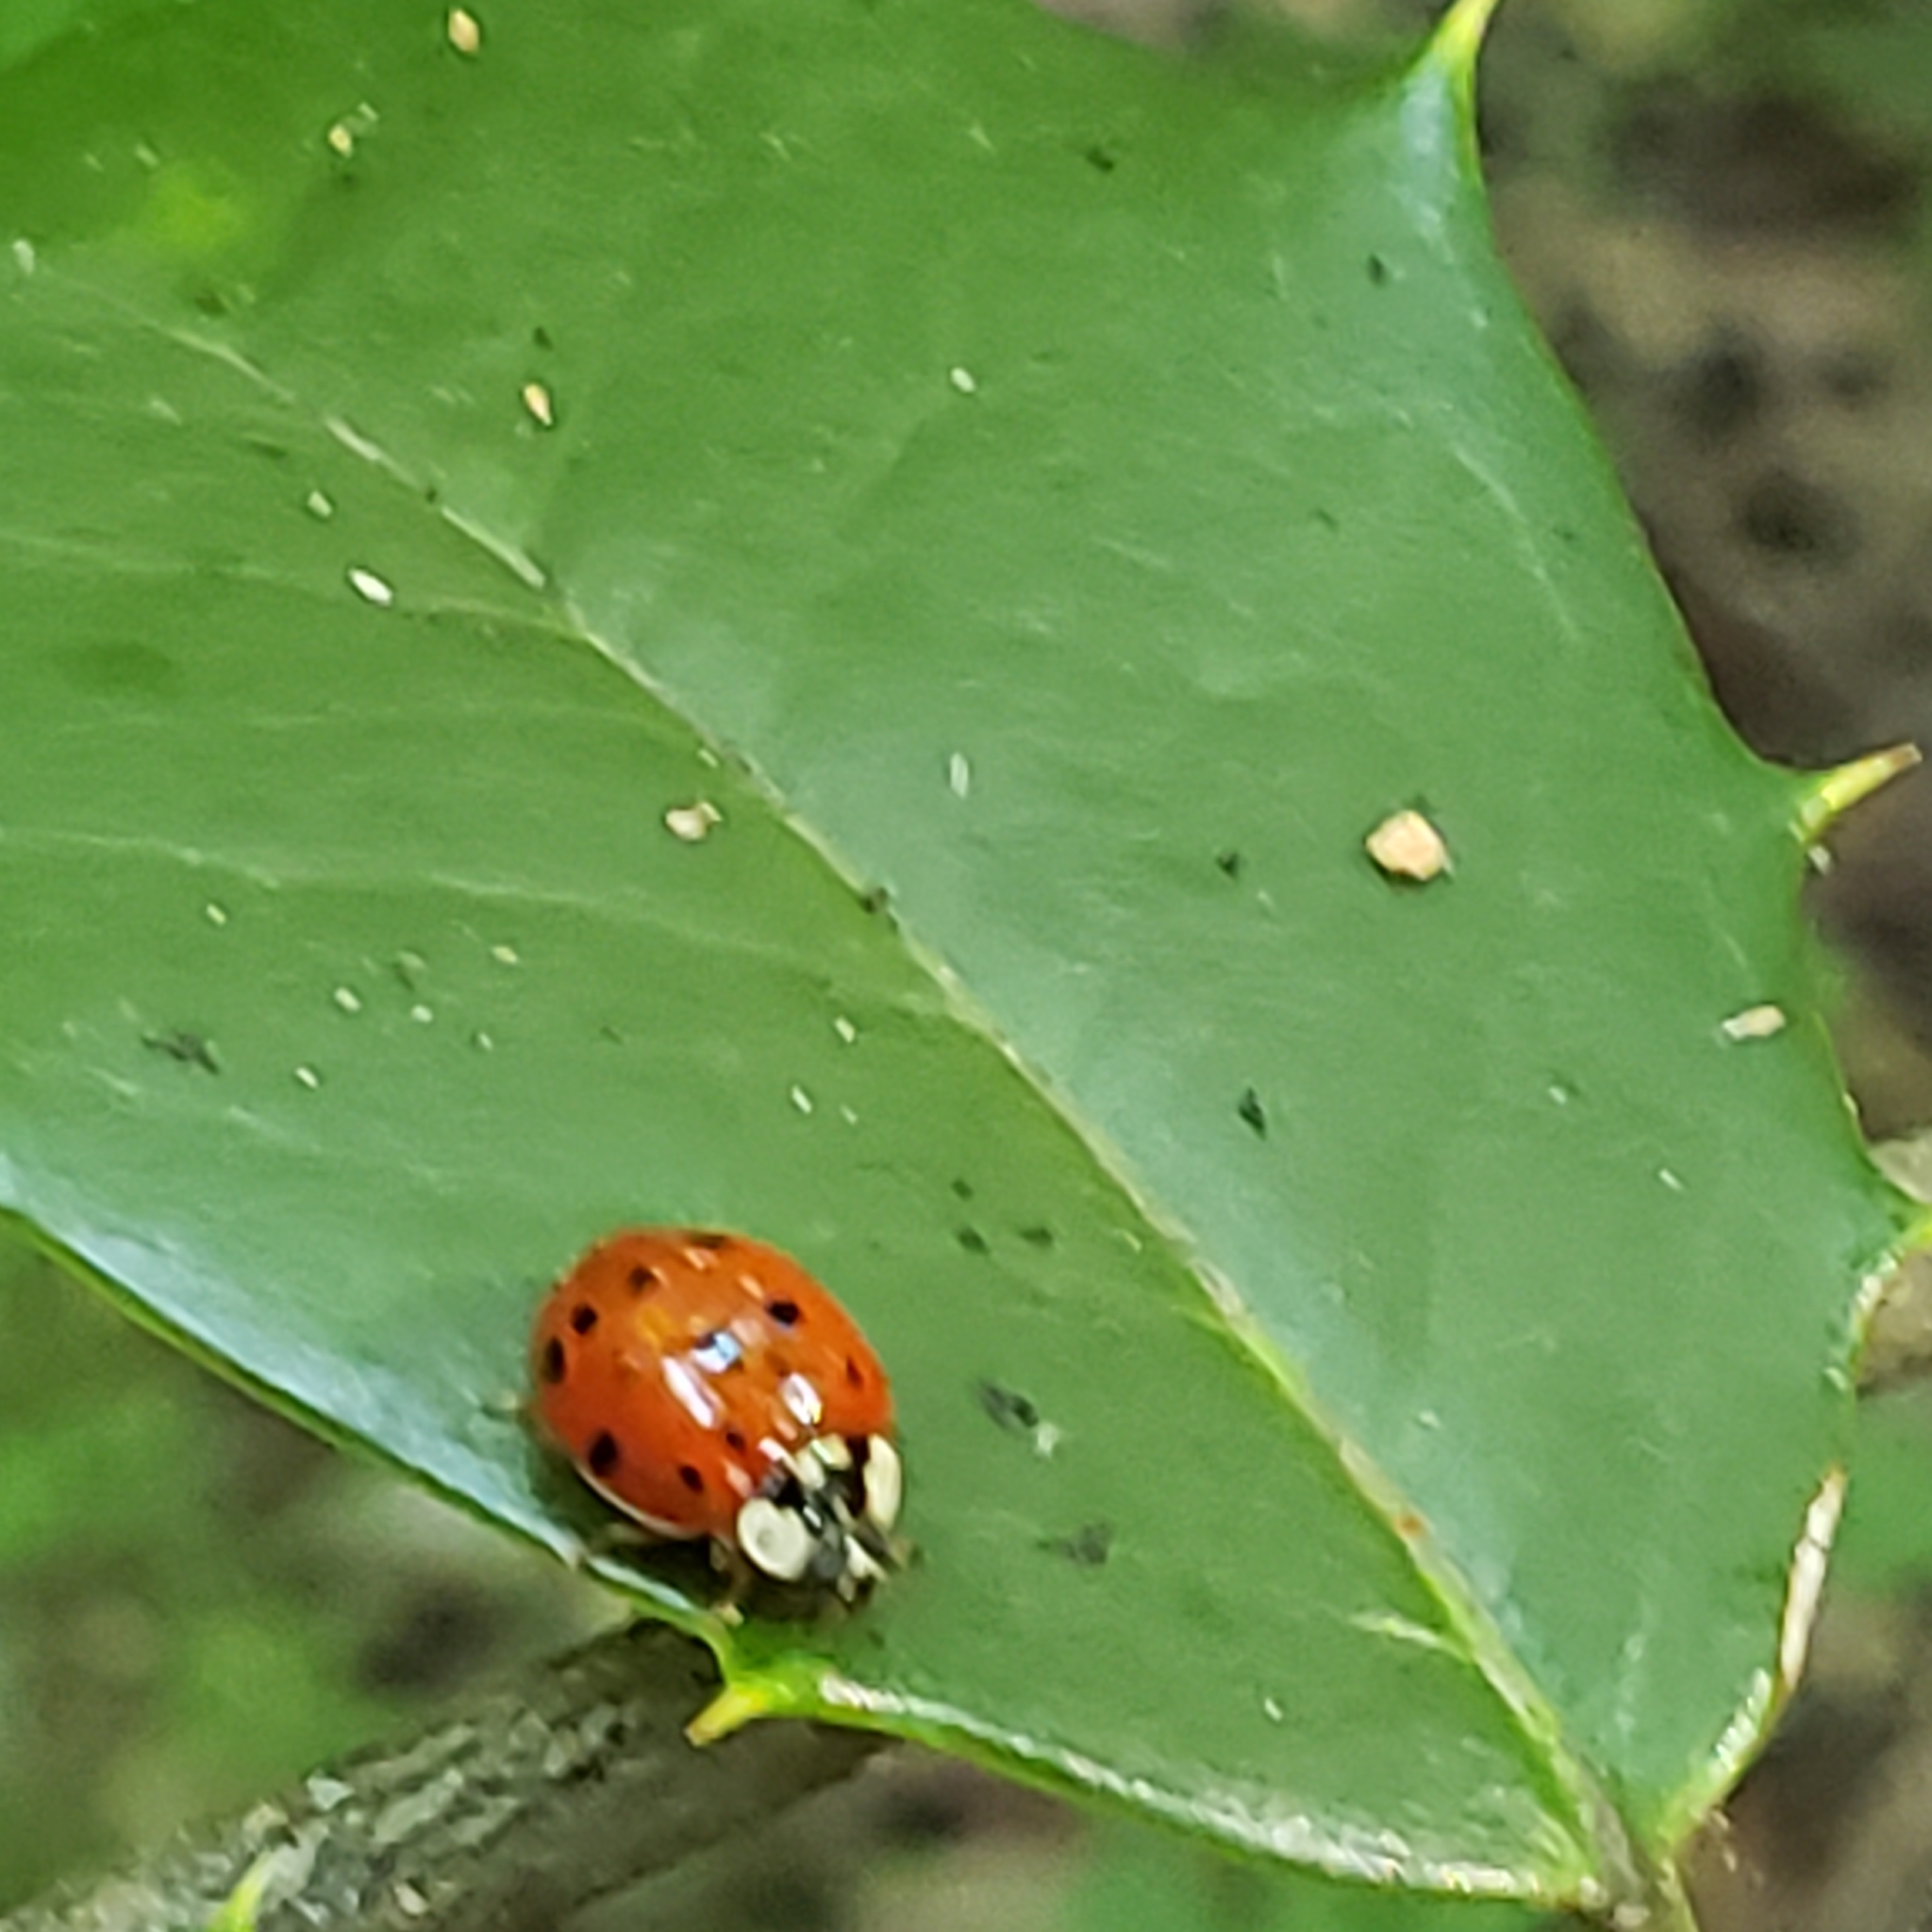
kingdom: Animalia
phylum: Arthropoda
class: Insecta
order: Coleoptera
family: Coccinellidae
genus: Harmonia
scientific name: Harmonia axyridis
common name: Harlequin ladybird
